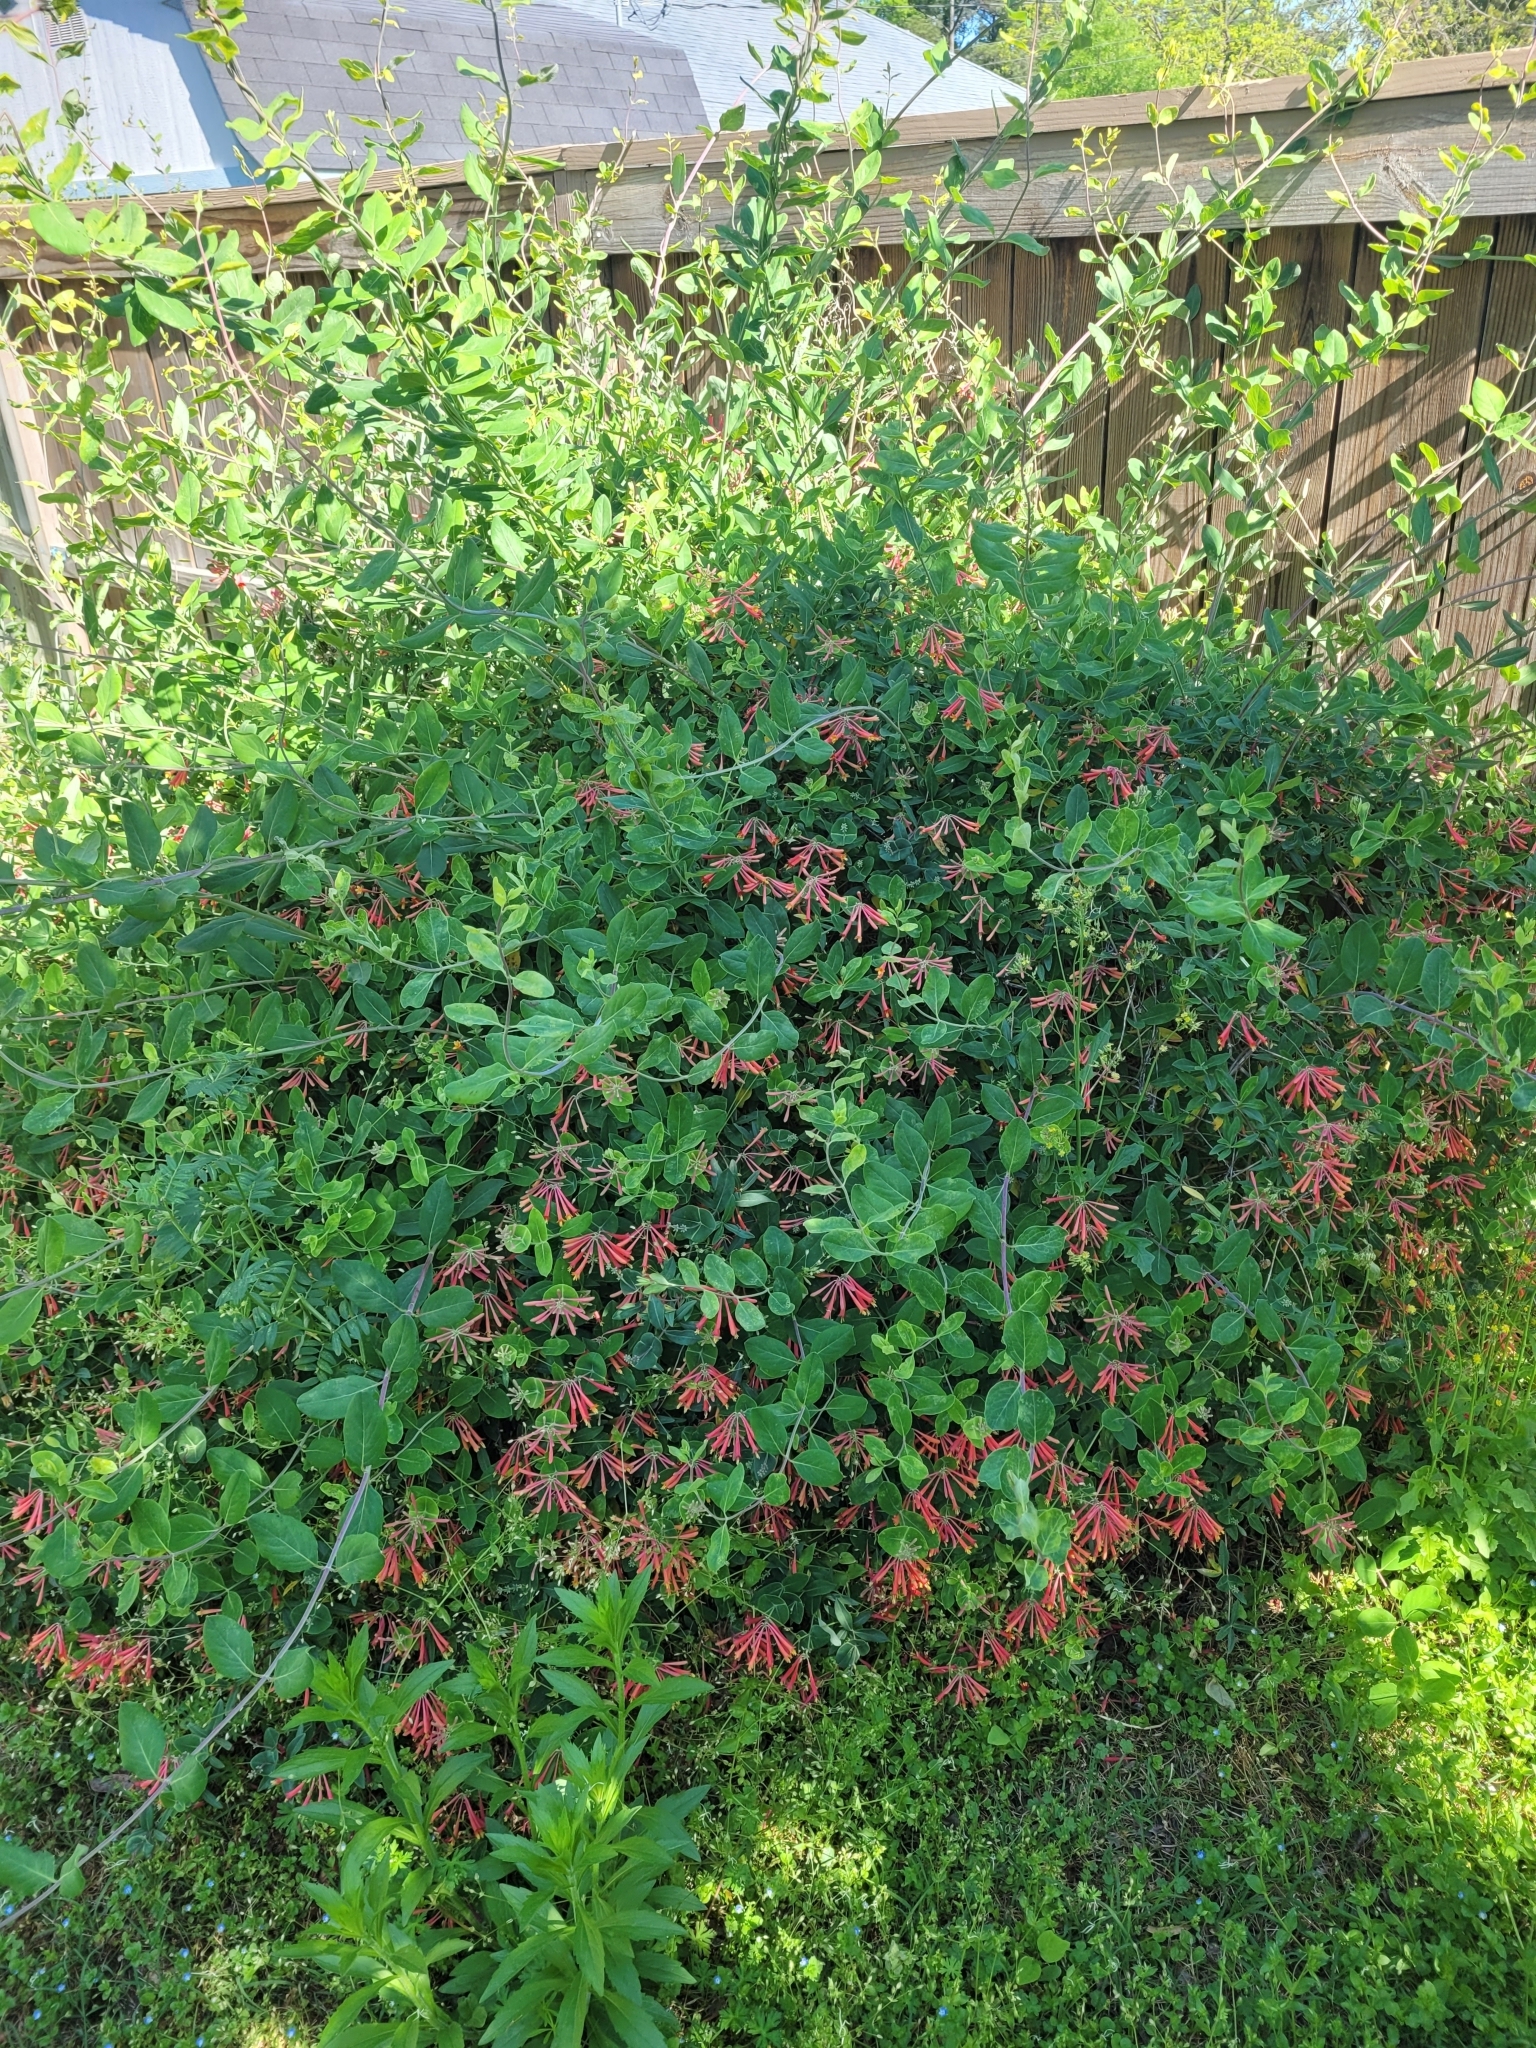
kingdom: Plantae
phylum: Tracheophyta
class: Magnoliopsida
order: Dipsacales
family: Caprifoliaceae
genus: Lonicera
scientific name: Lonicera sempervirens
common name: Coral honeysuckle
